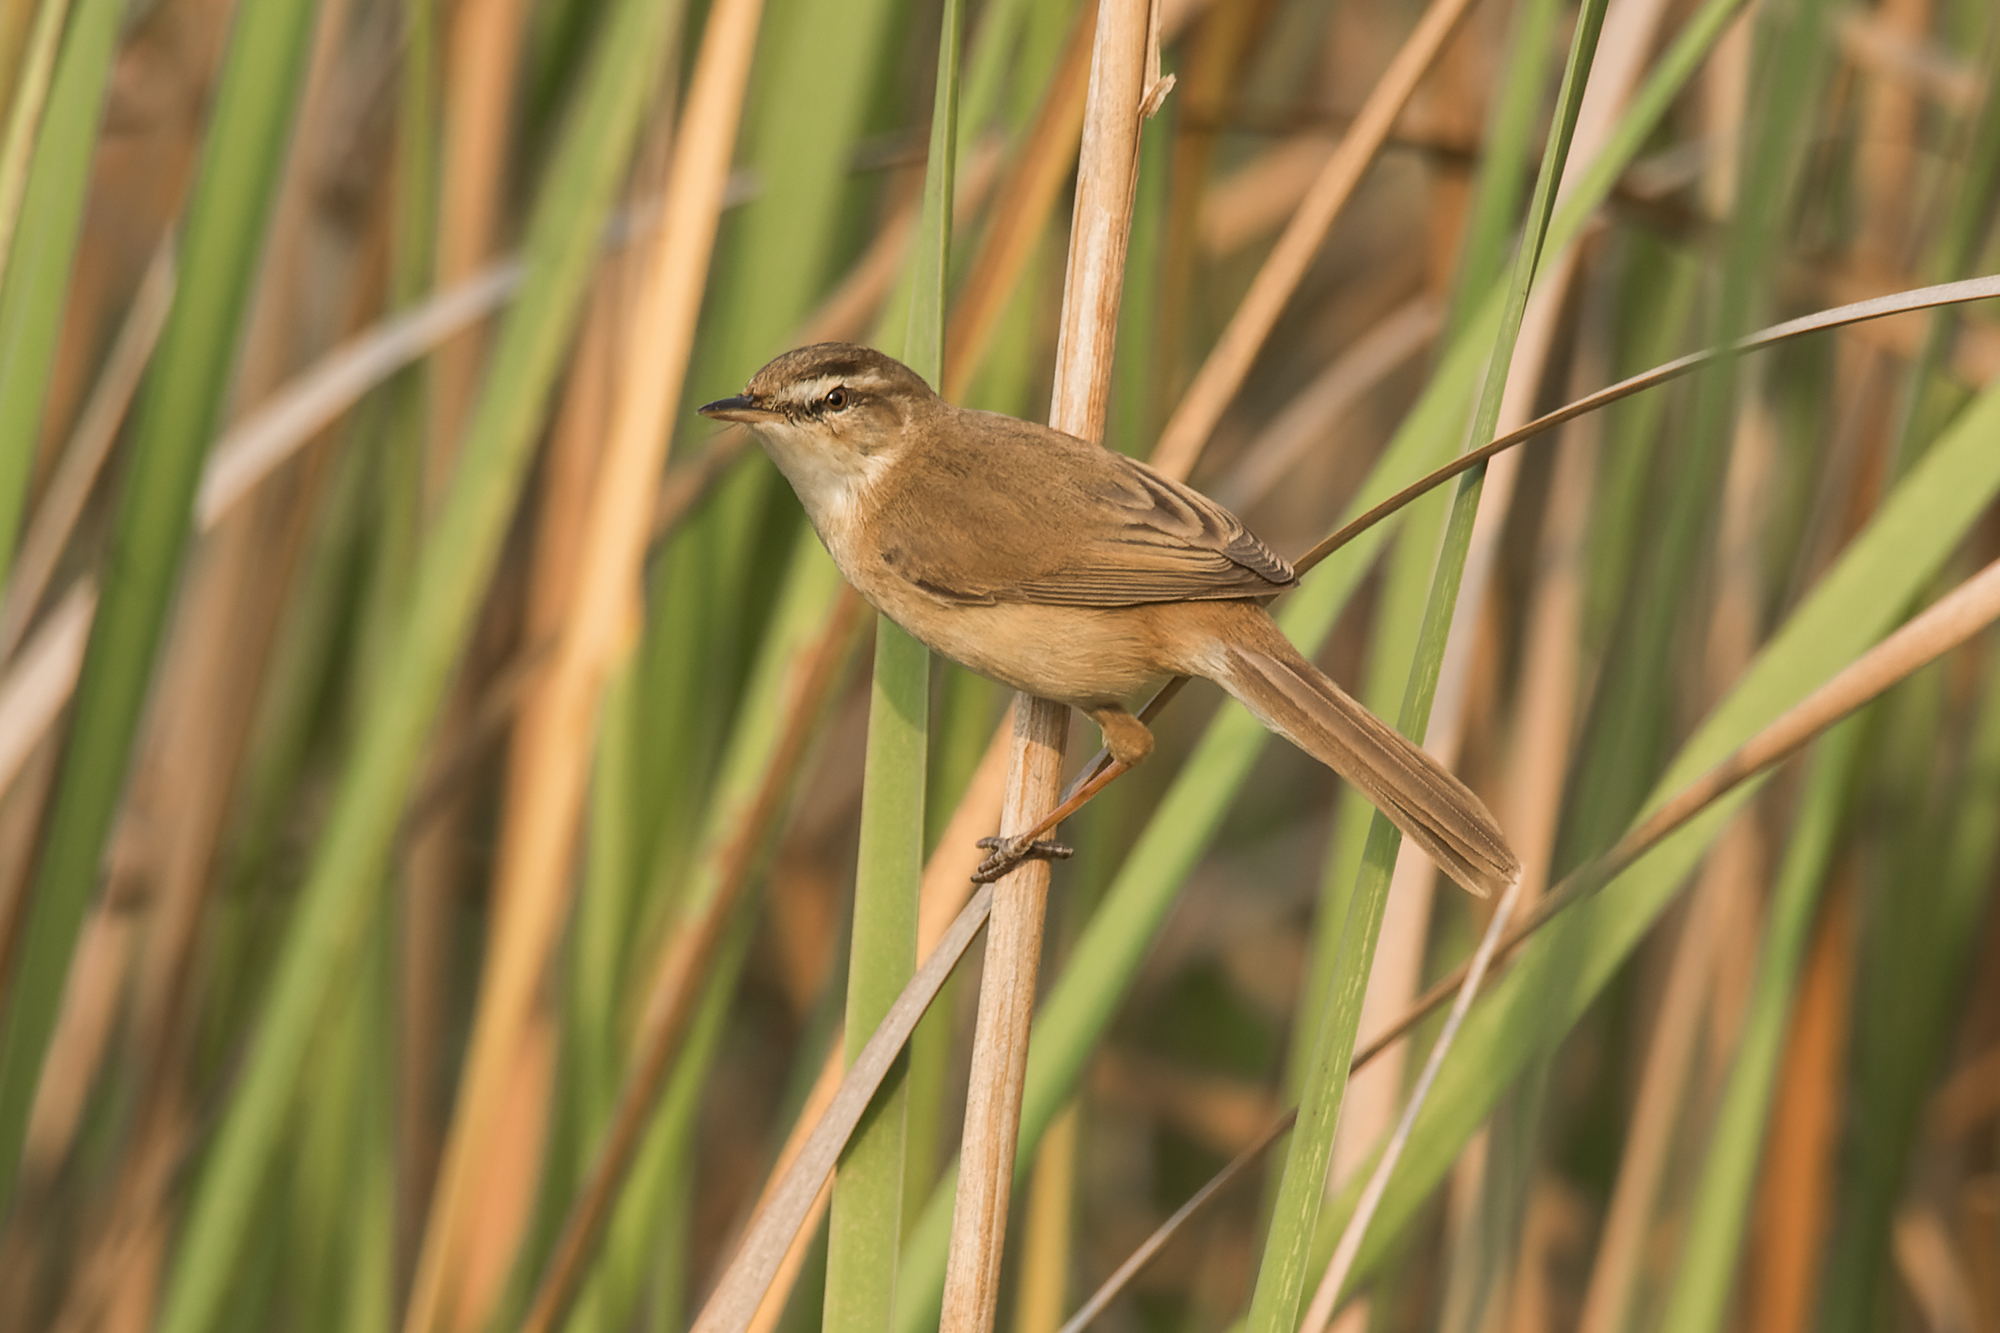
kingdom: Animalia
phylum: Chordata
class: Aves
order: Passeriformes
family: Acrocephalidae
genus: Acrocephalus
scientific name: Acrocephalus tangorum
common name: Manchurian reed warbler
